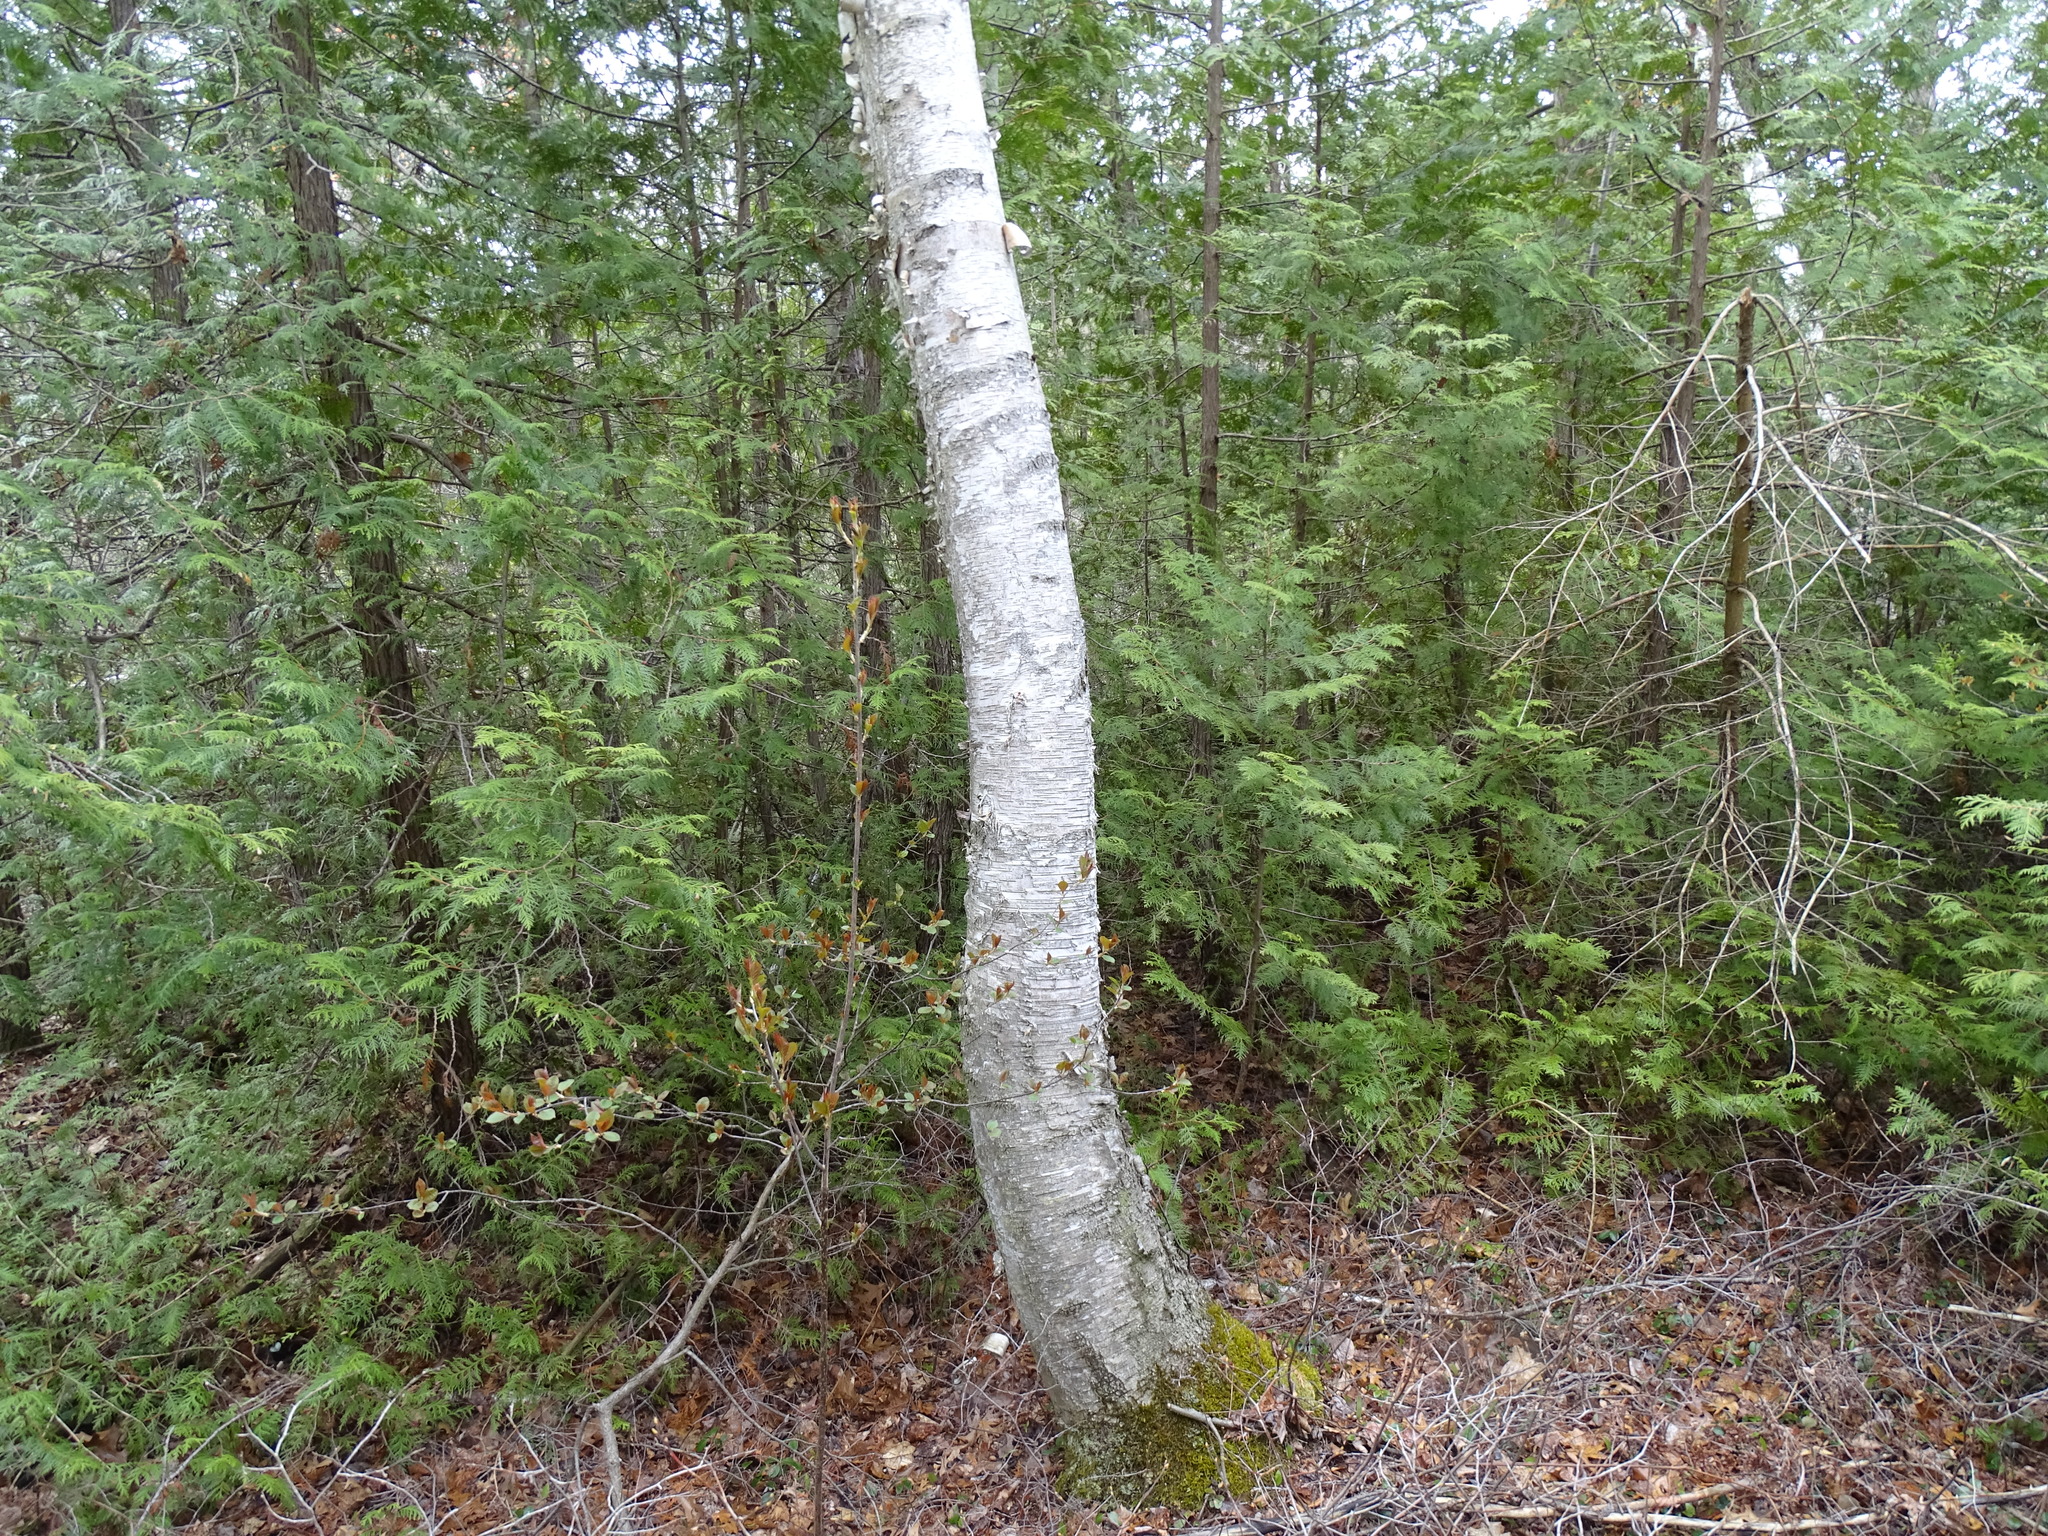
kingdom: Plantae
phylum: Tracheophyta
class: Magnoliopsida
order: Fagales
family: Betulaceae
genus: Betula
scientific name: Betula papyrifera
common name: Paper birch
